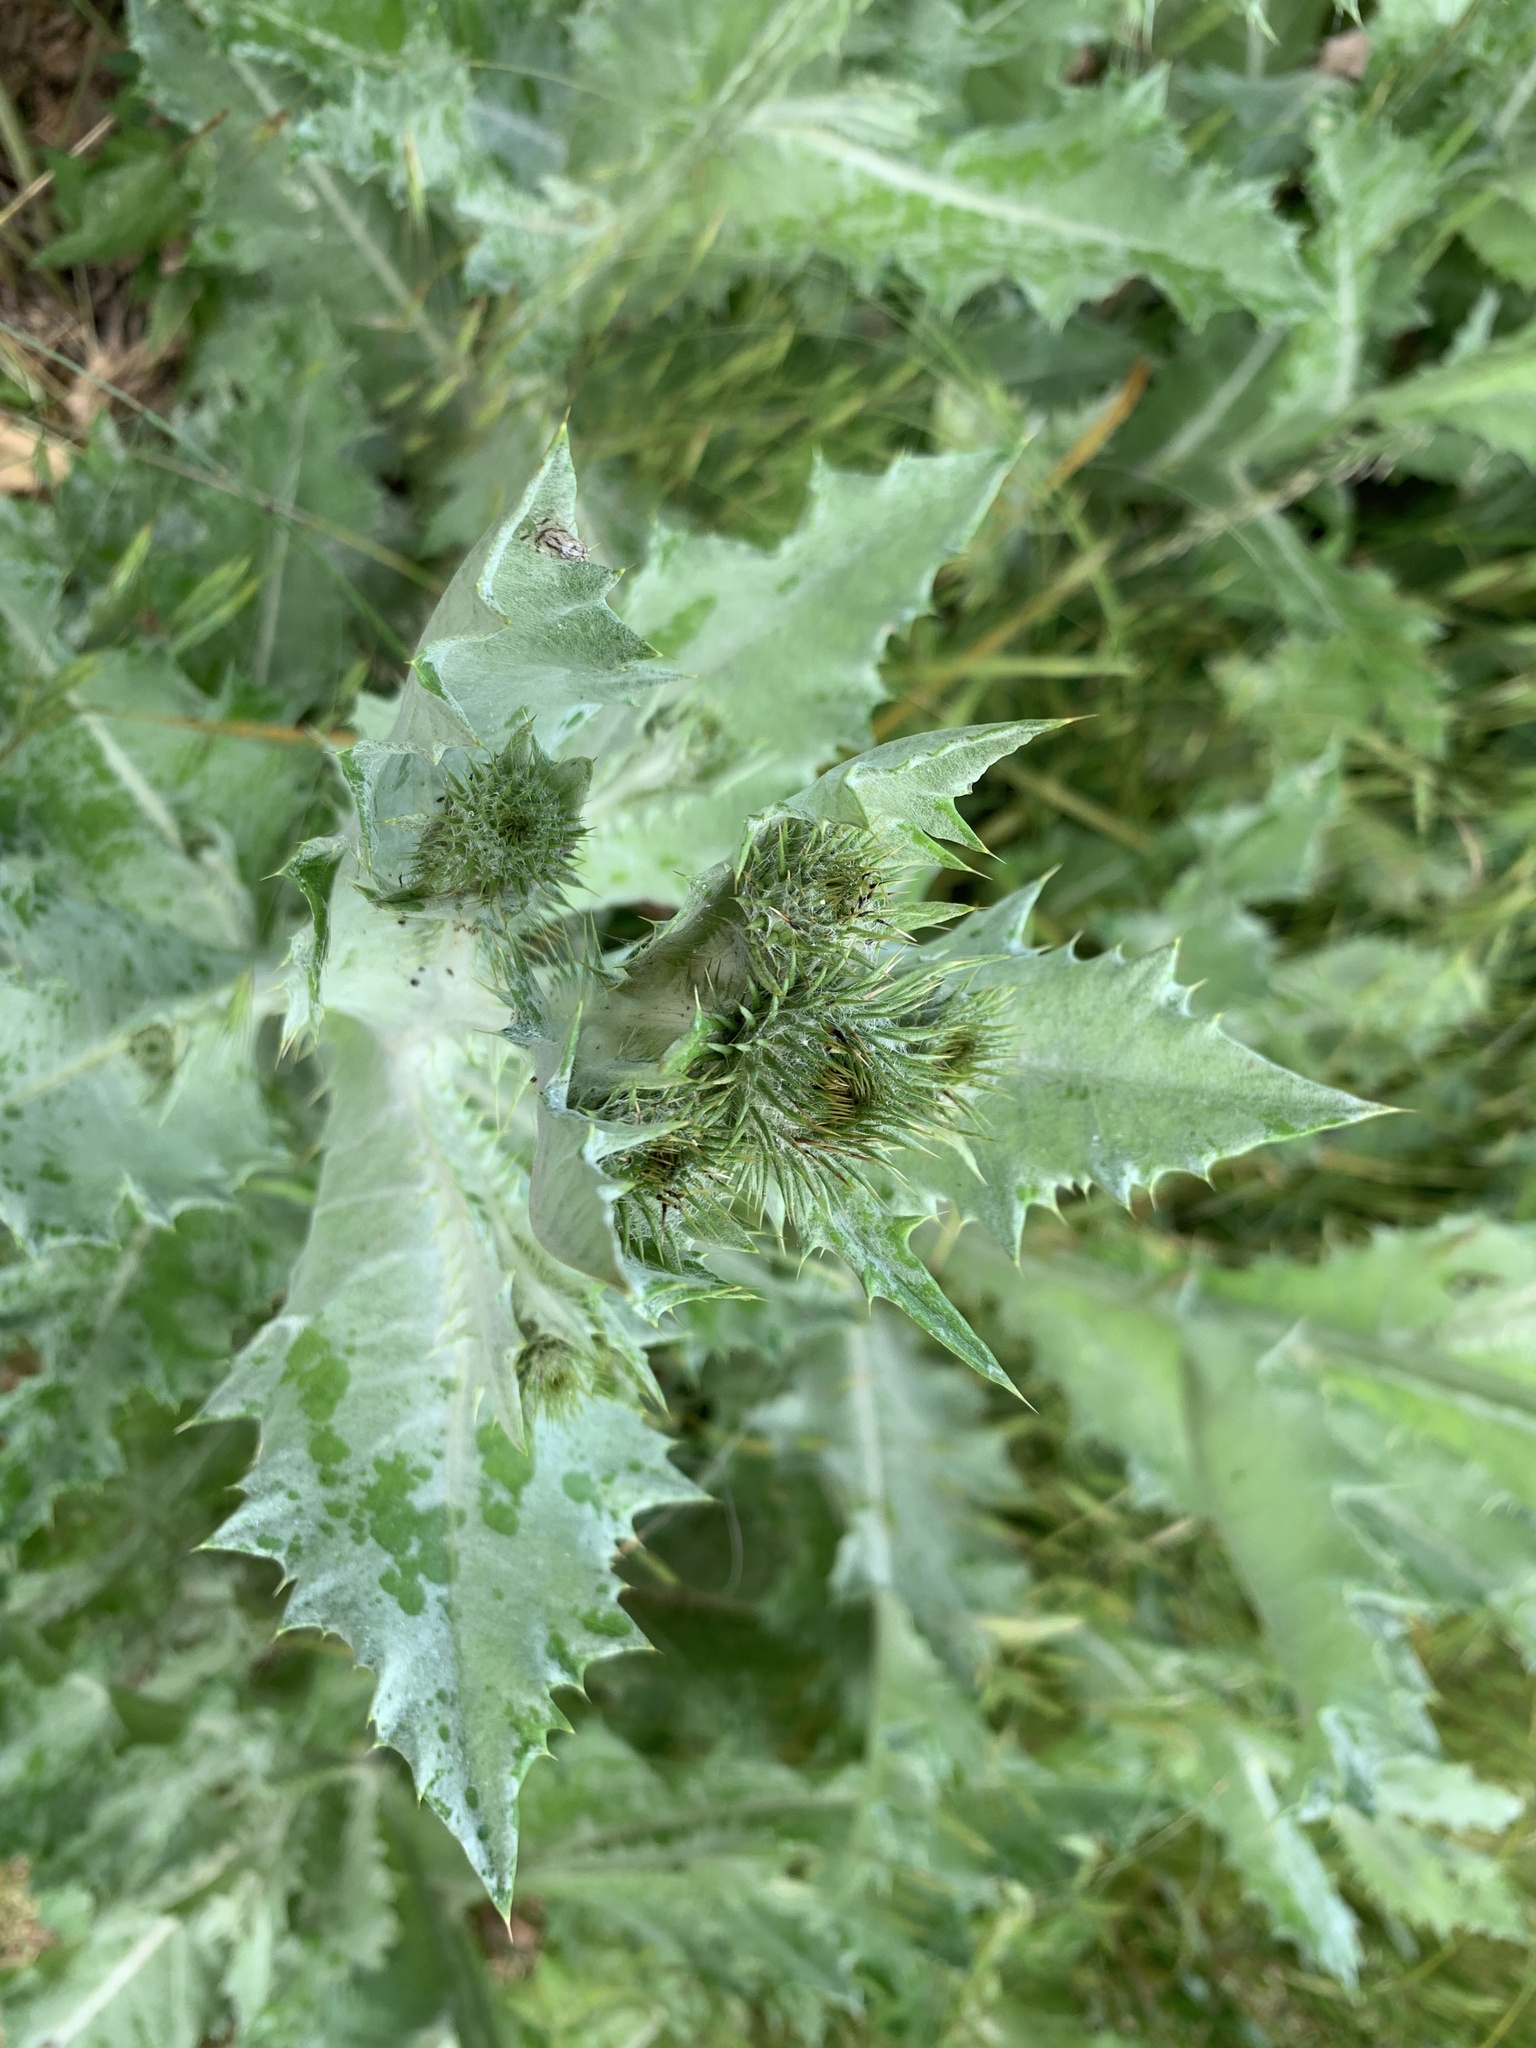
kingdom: Plantae
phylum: Tracheophyta
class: Magnoliopsida
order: Asterales
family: Asteraceae
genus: Onopordum
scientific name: Onopordum acanthium
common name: Scotch thistle
